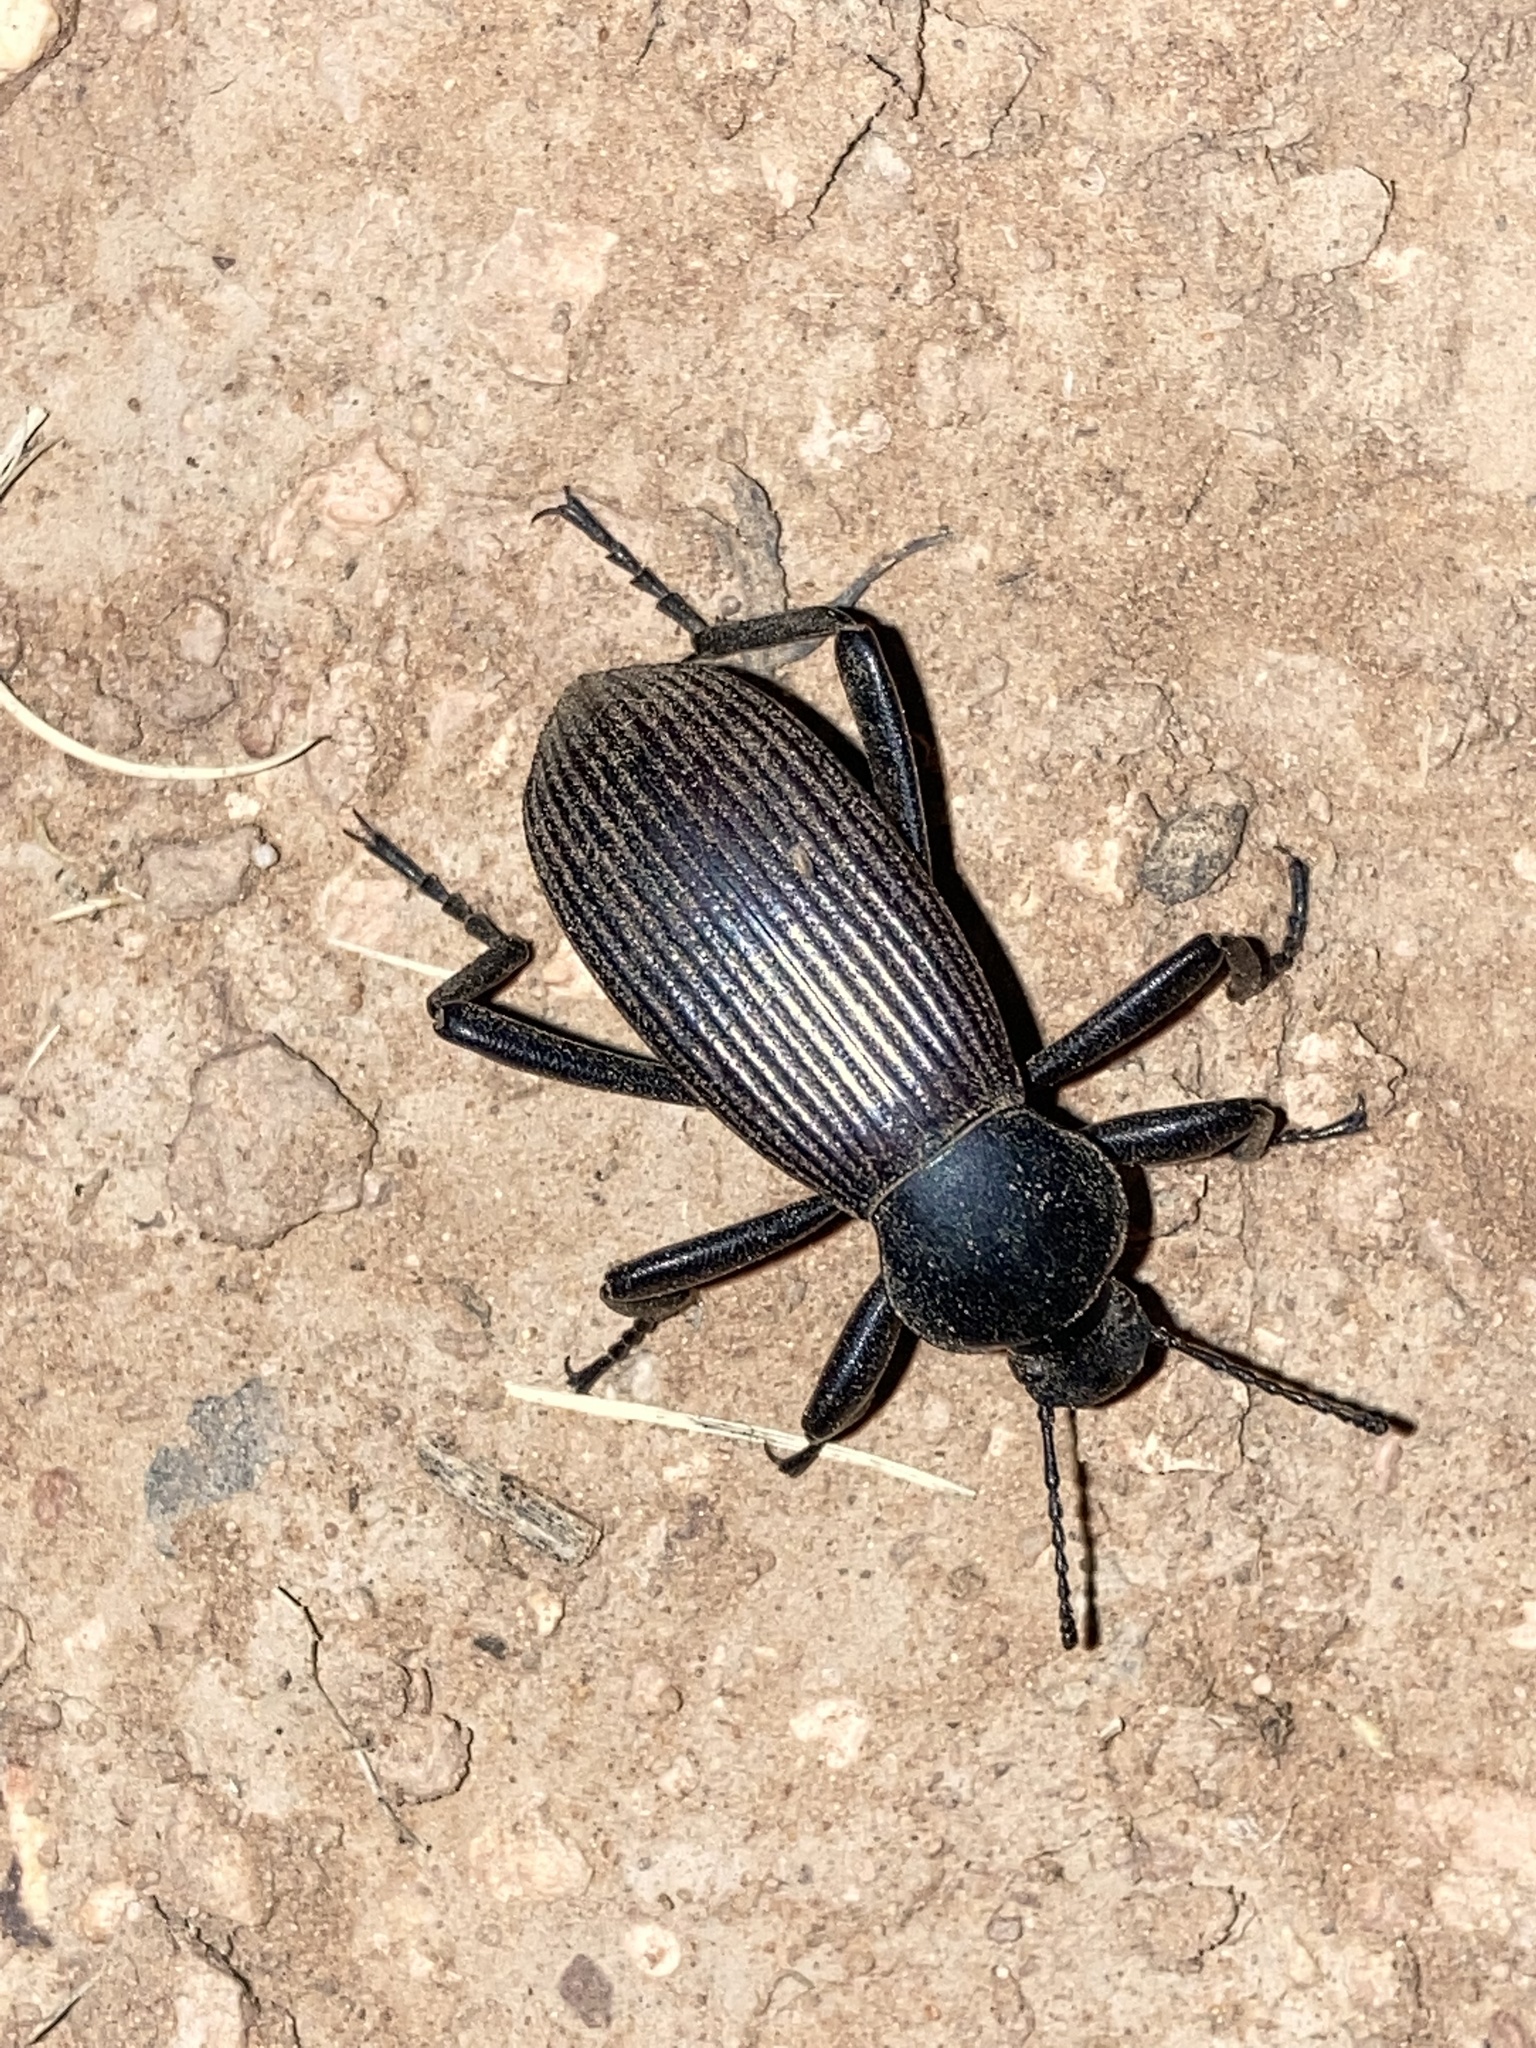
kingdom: Animalia
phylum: Arthropoda
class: Insecta
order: Coleoptera
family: Tenebrionidae
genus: Eleodes
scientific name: Eleodes obscura
